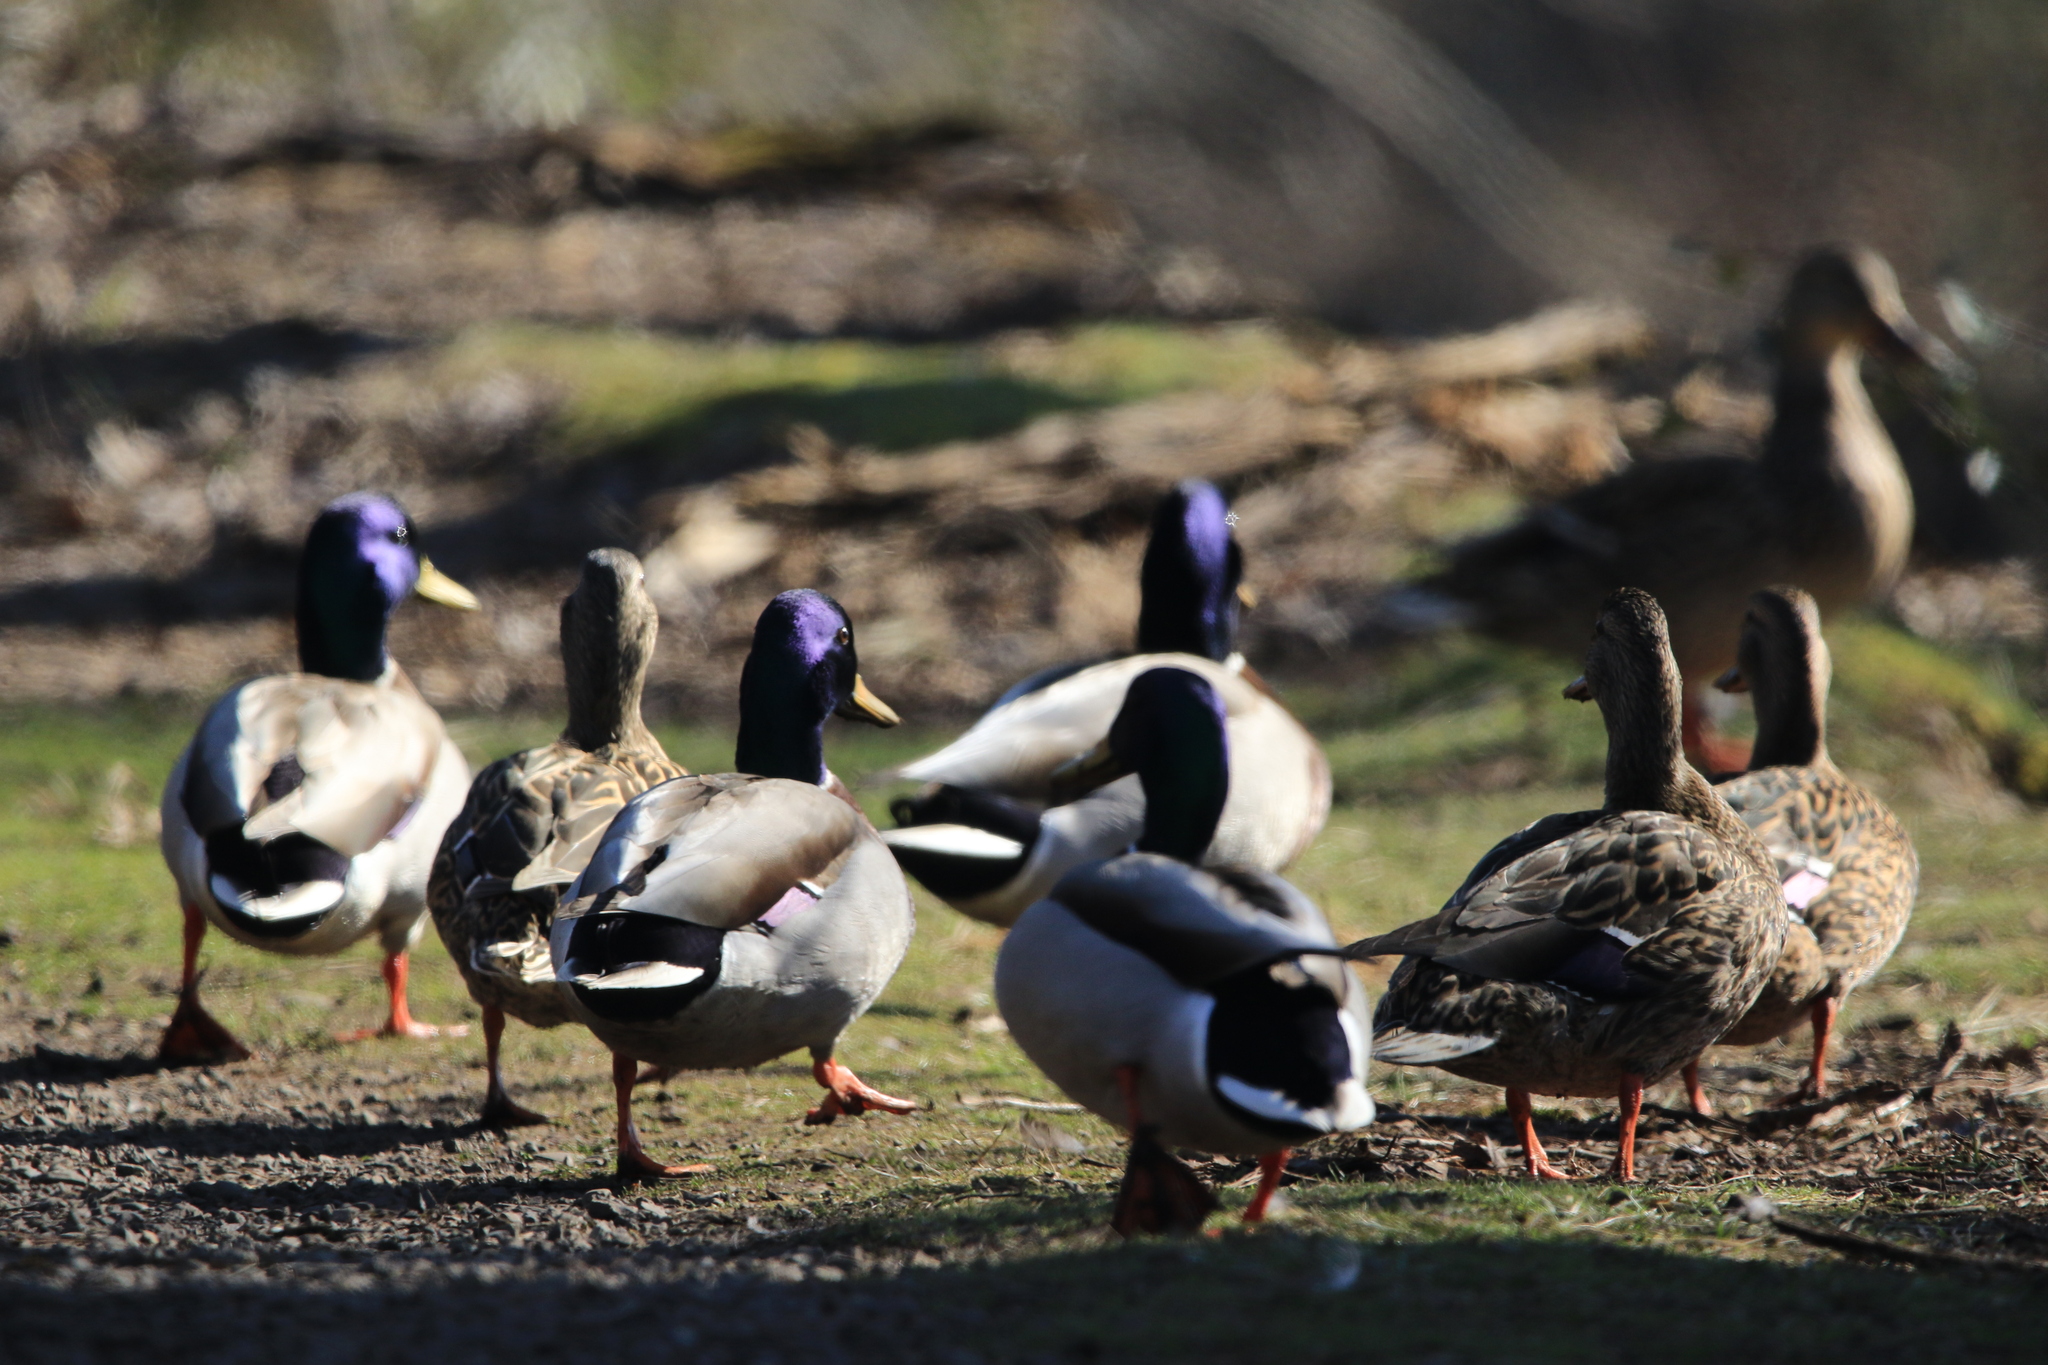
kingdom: Animalia
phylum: Chordata
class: Aves
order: Anseriformes
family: Anatidae
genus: Anas
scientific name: Anas platyrhynchos
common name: Mallard
